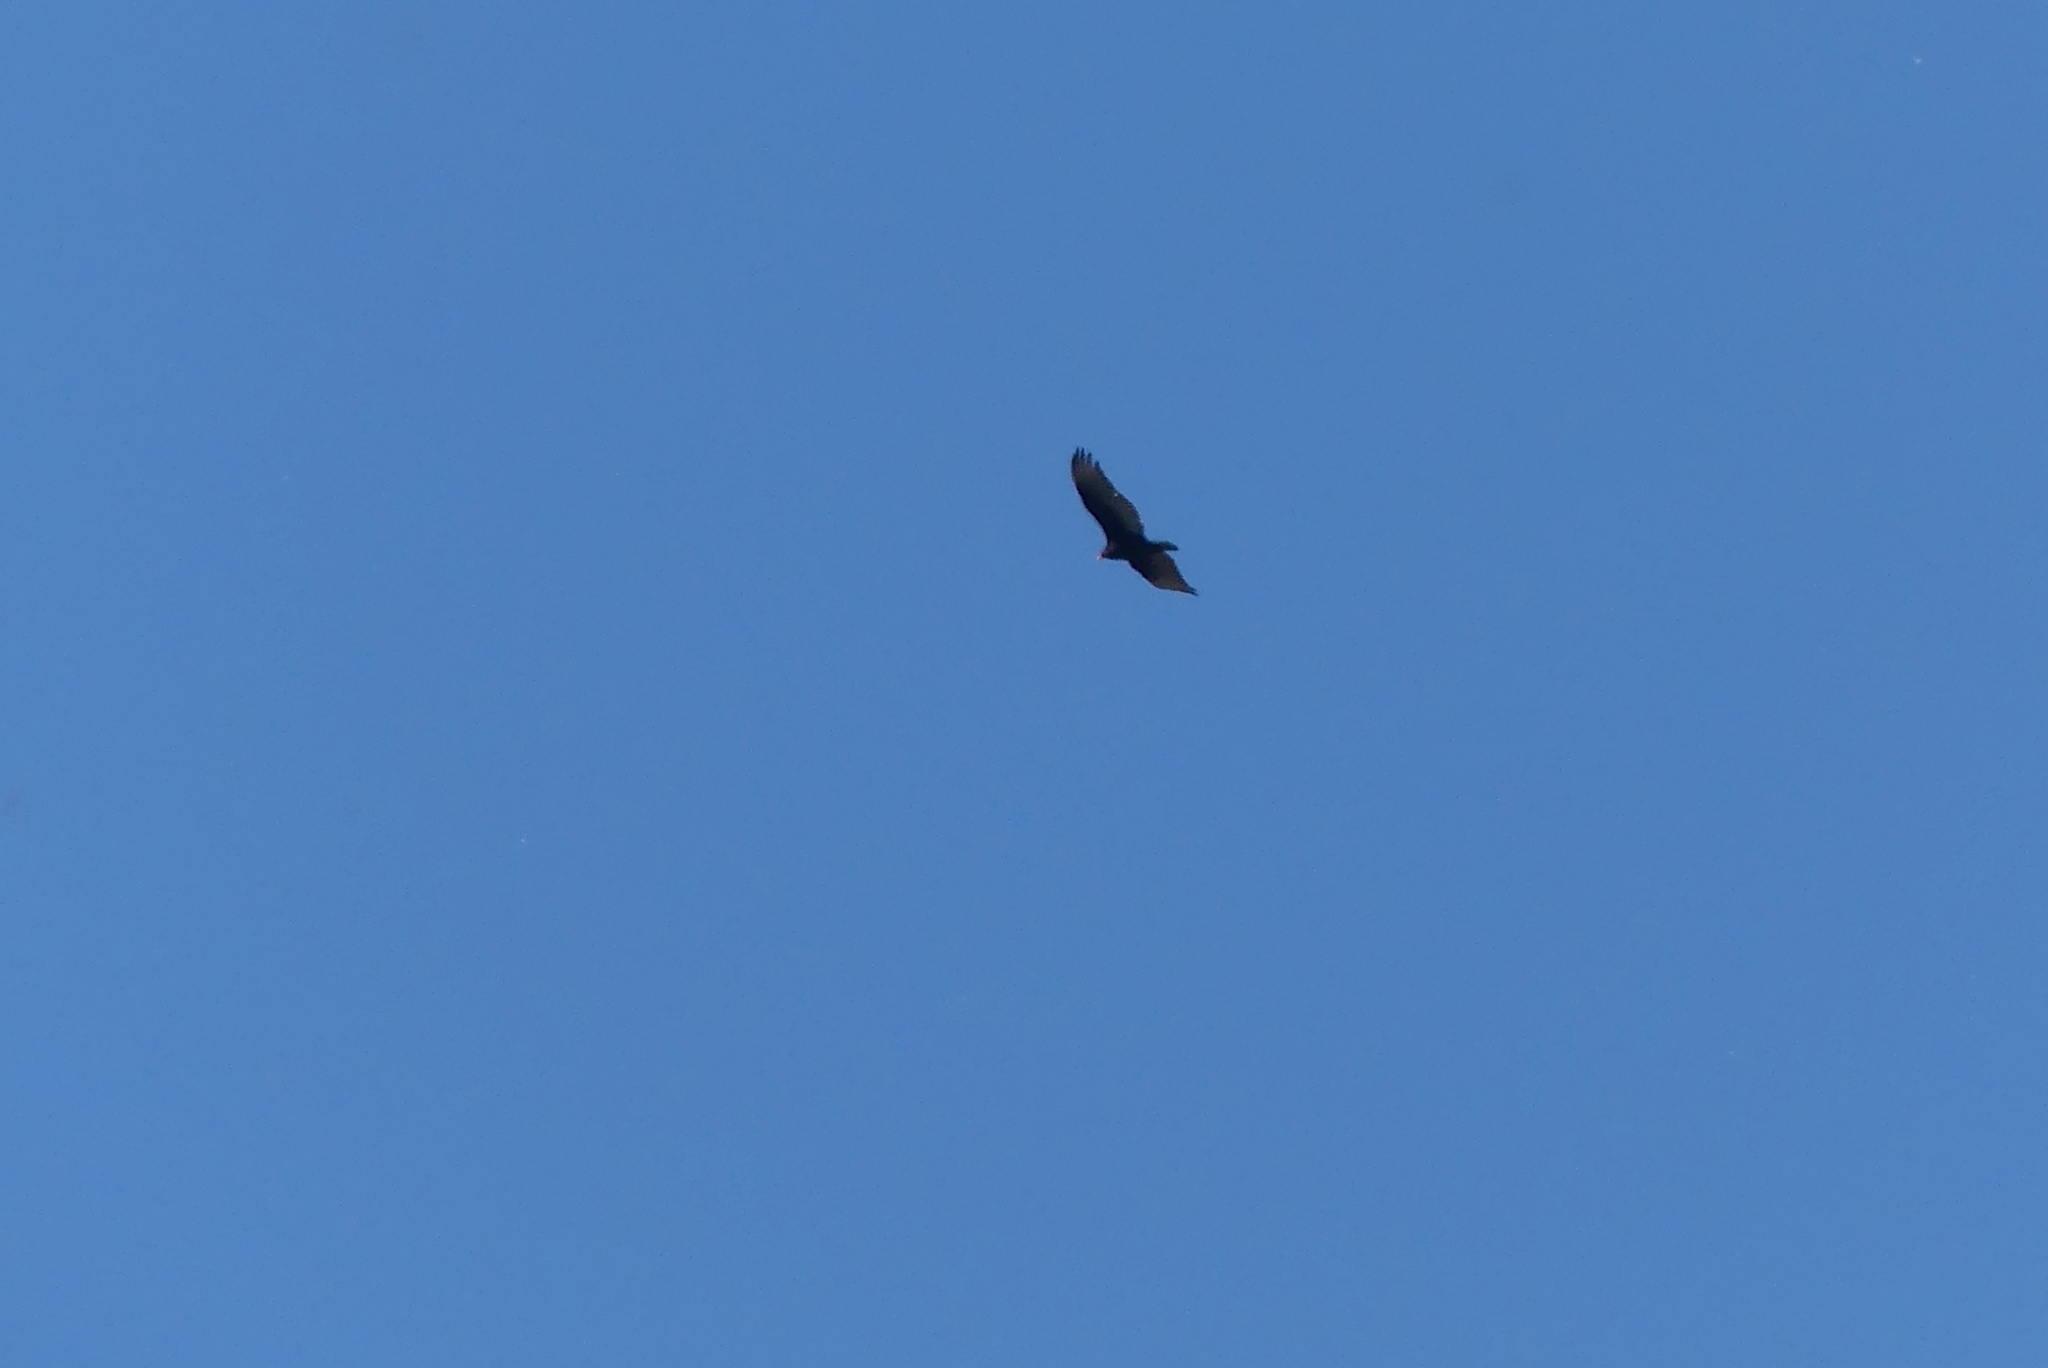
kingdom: Animalia
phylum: Chordata
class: Aves
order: Accipitriformes
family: Cathartidae
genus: Cathartes
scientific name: Cathartes aura
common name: Turkey vulture
